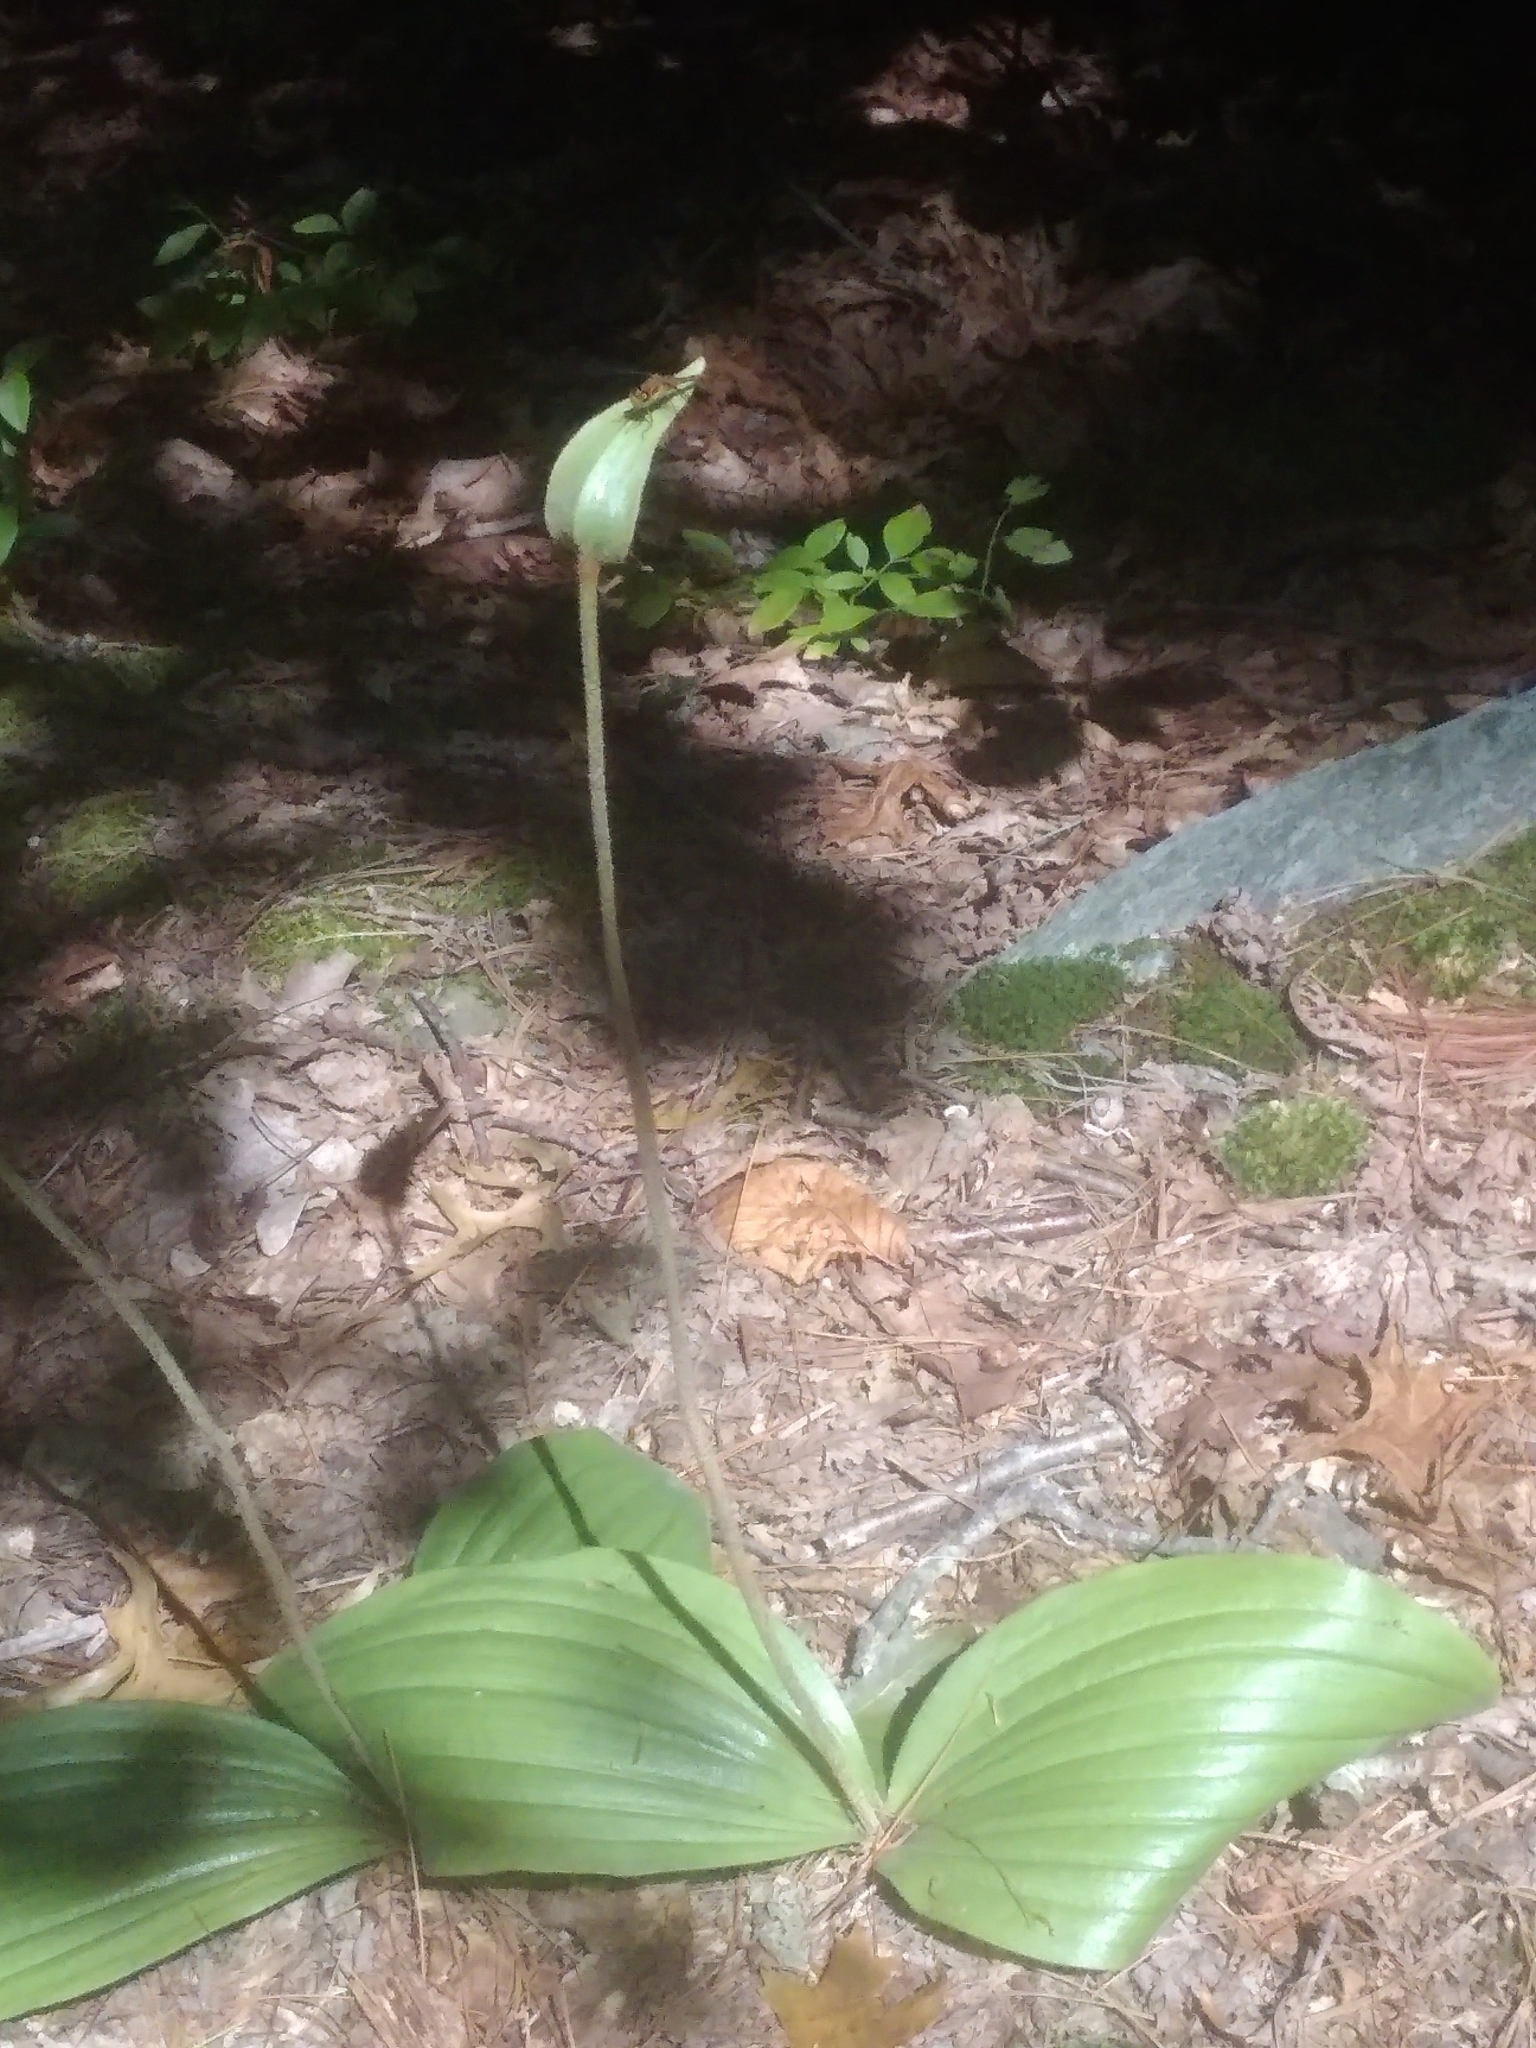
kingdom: Plantae
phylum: Tracheophyta
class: Liliopsida
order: Asparagales
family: Orchidaceae
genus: Cypripedium
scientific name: Cypripedium acaule
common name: Pink lady's-slipper
